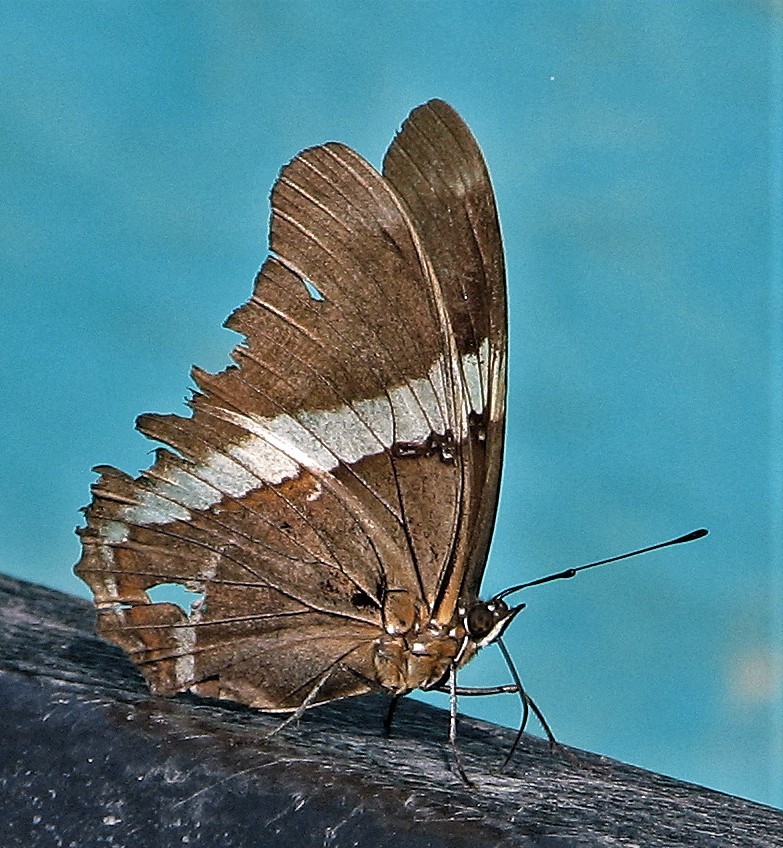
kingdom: Animalia
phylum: Arthropoda
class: Insecta
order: Lepidoptera
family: Nymphalidae
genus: Siproeta
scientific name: Siproeta epaphus
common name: Rusty-tipped page
